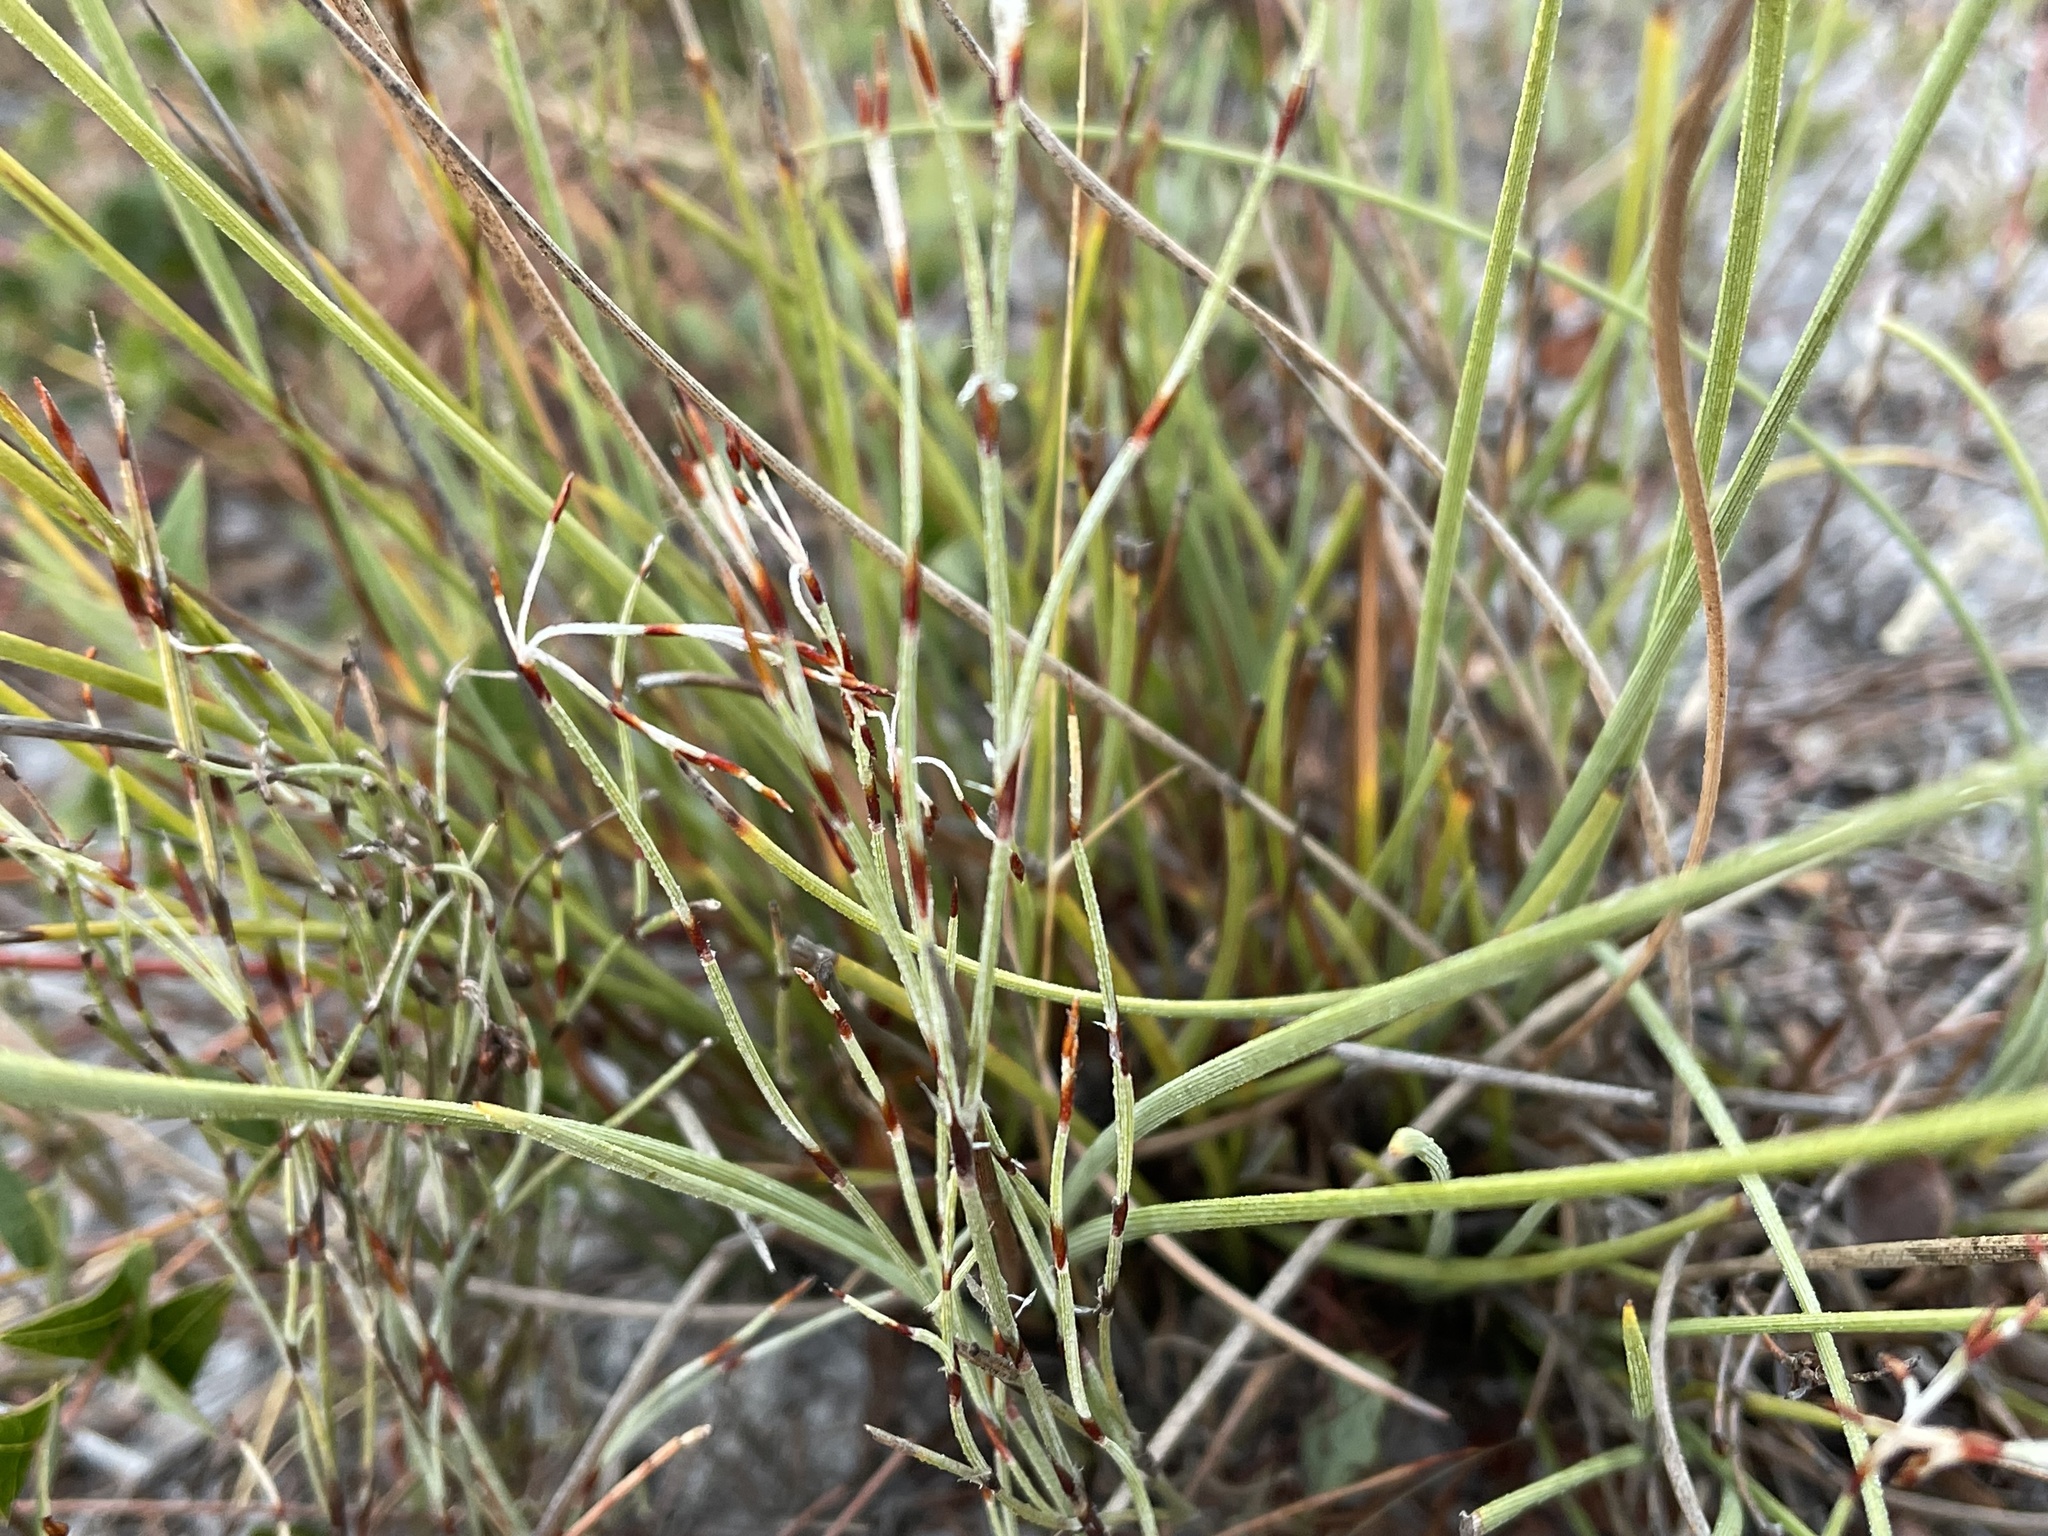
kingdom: Plantae
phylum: Tracheophyta
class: Liliopsida
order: Poales
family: Restionaceae
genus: Hypolaena
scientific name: Hypolaena fastigiata
